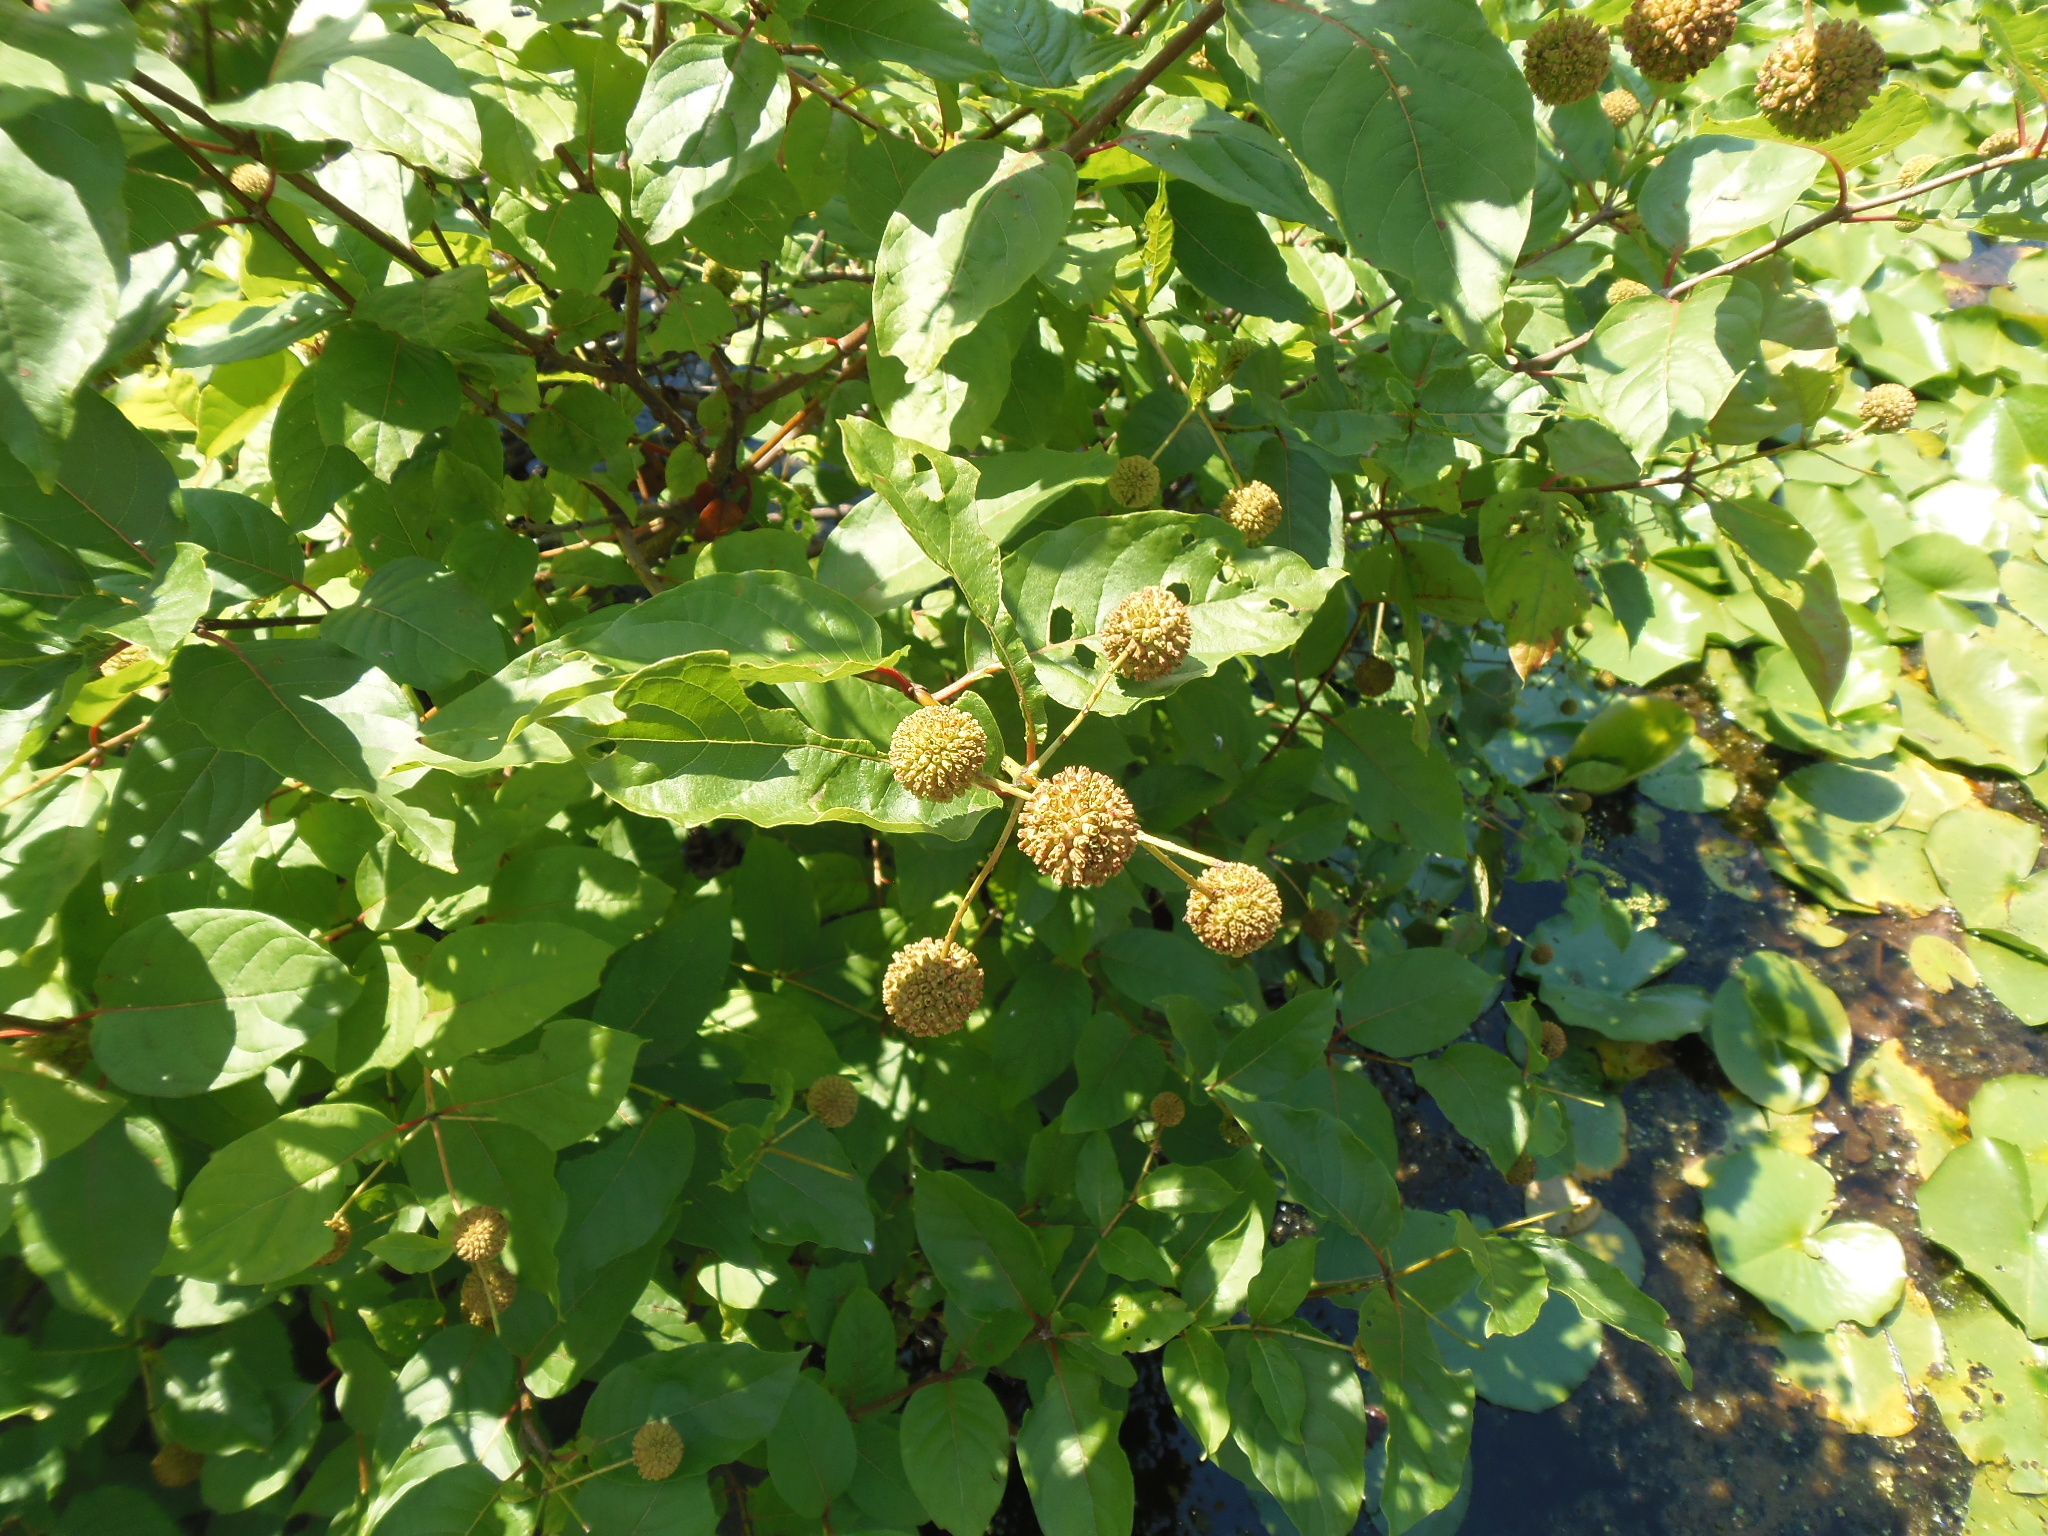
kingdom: Plantae
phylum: Tracheophyta
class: Magnoliopsida
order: Gentianales
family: Rubiaceae
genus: Cephalanthus
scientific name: Cephalanthus occidentalis
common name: Button-willow
